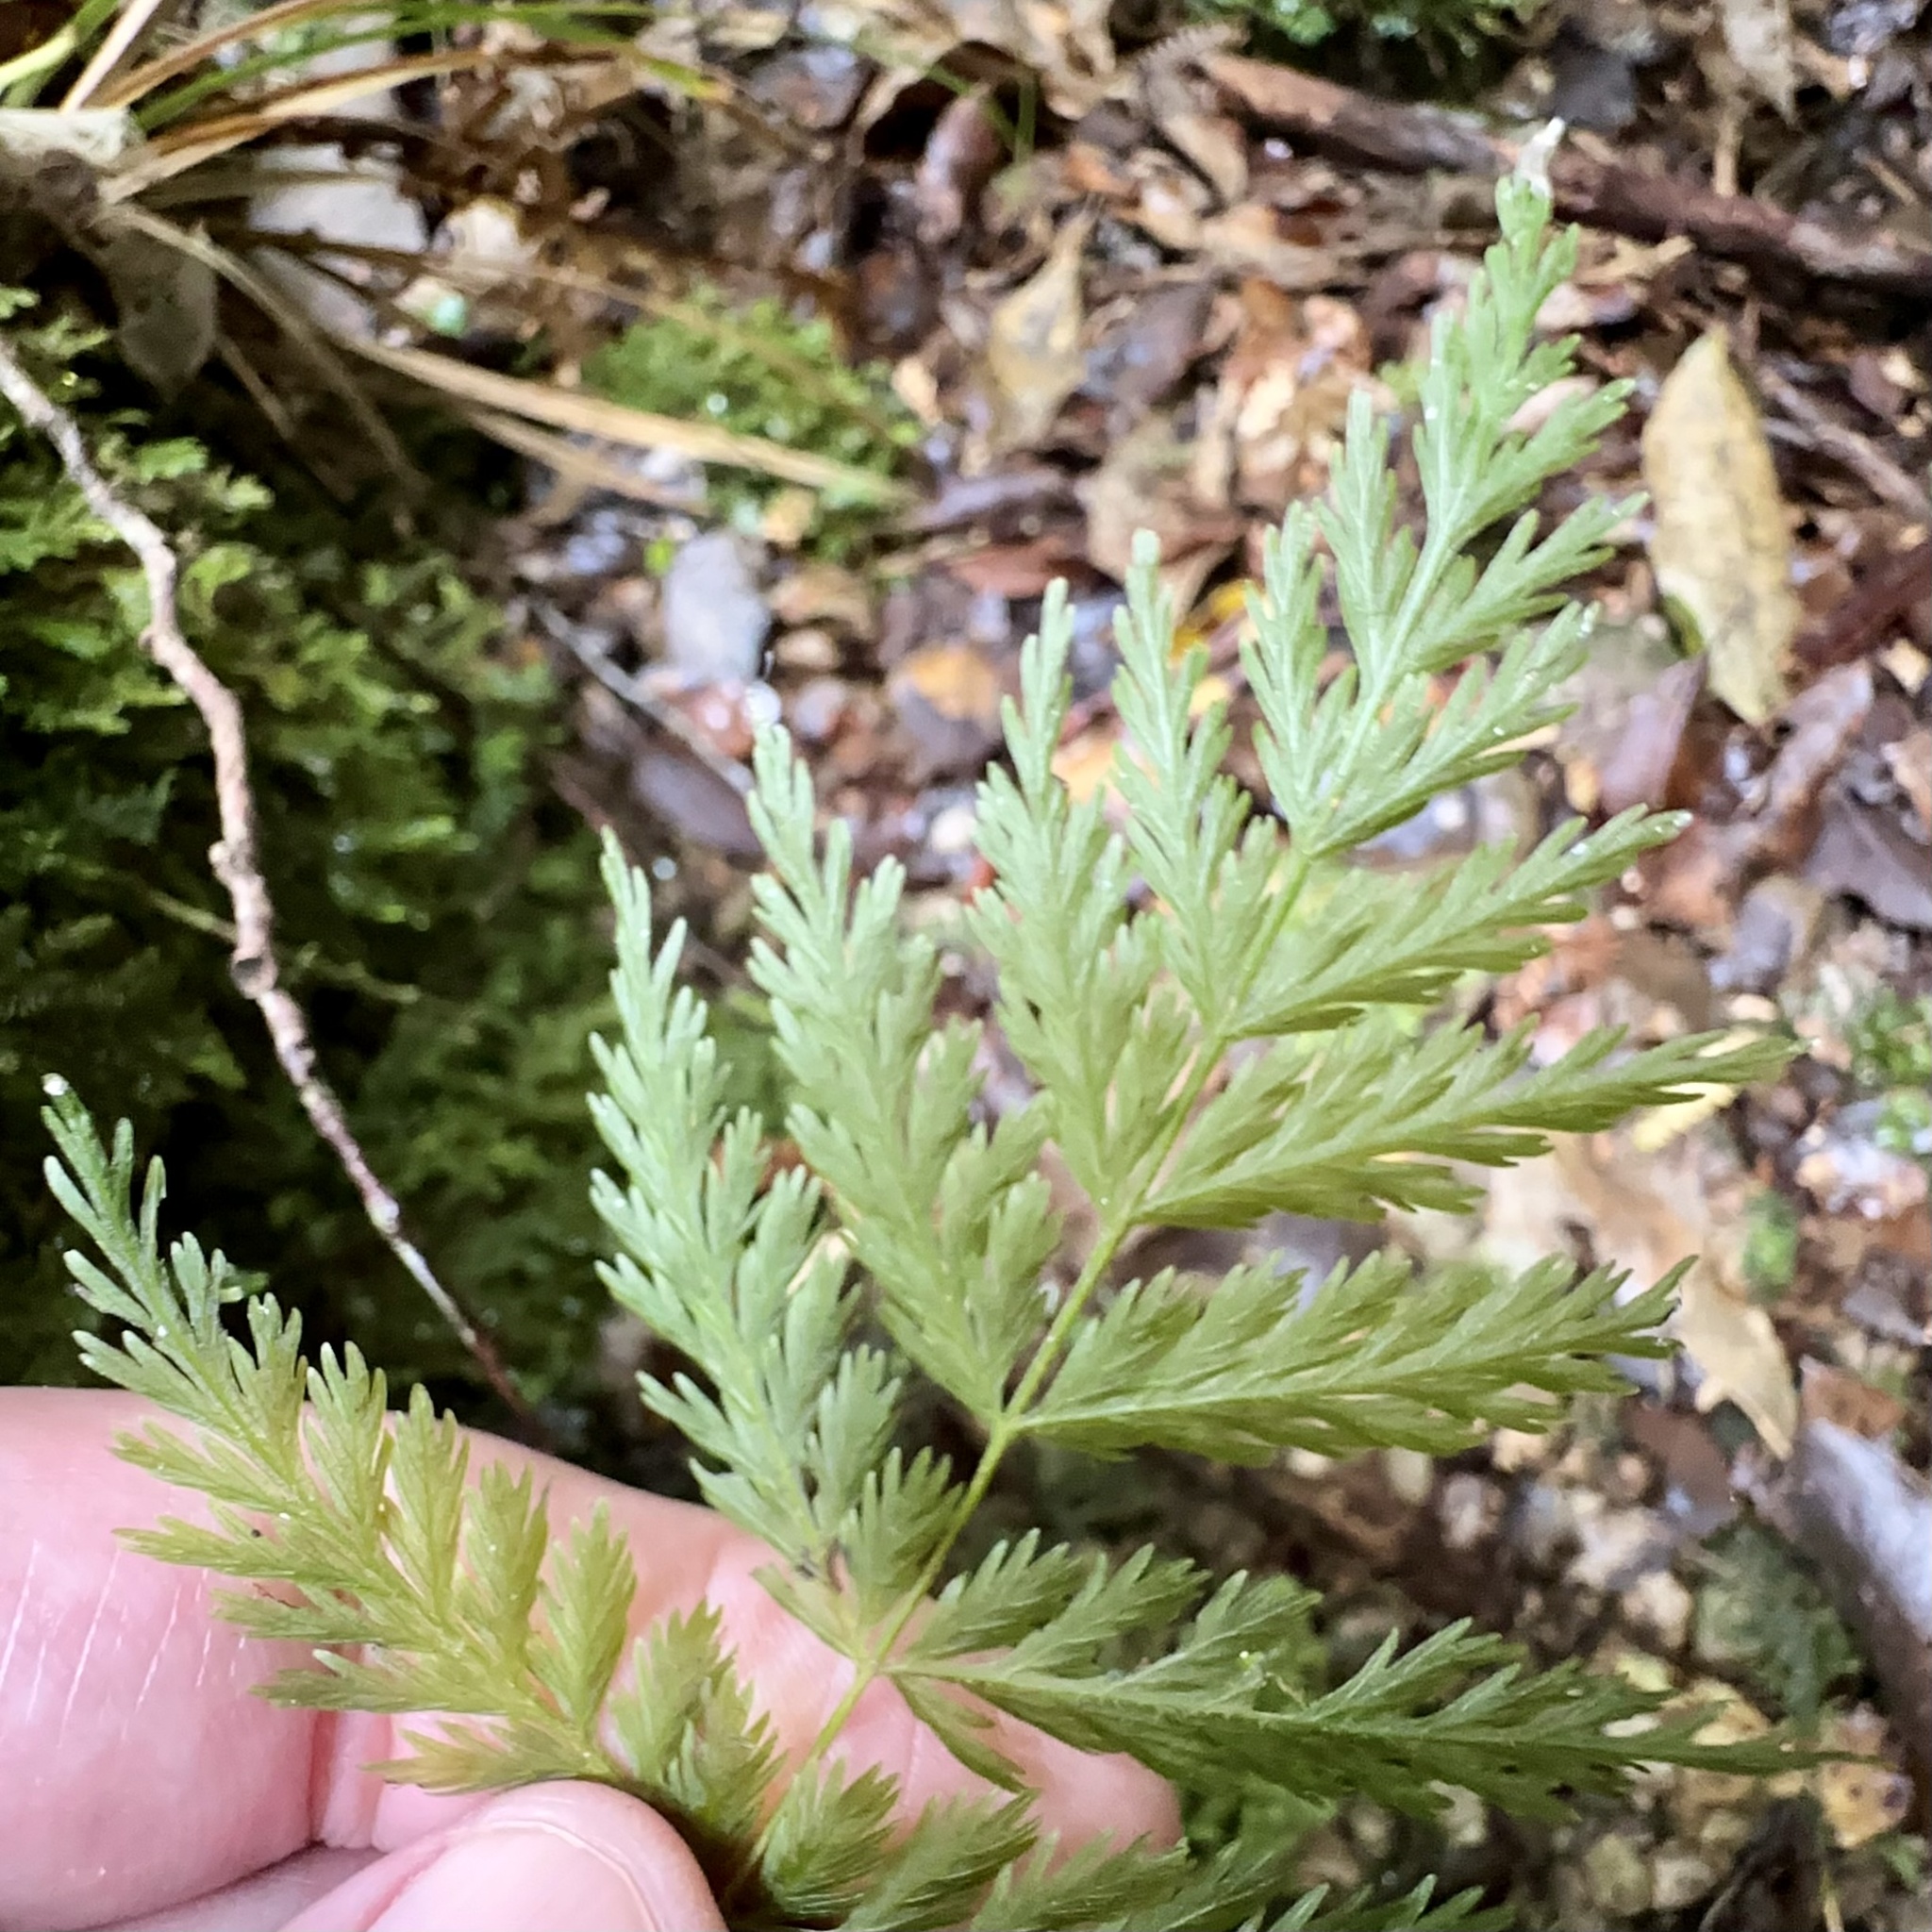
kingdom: Plantae
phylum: Tracheophyta
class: Polypodiopsida
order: Osmundales
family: Osmundaceae
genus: Leptopteris
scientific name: Leptopteris hymenophylloides
